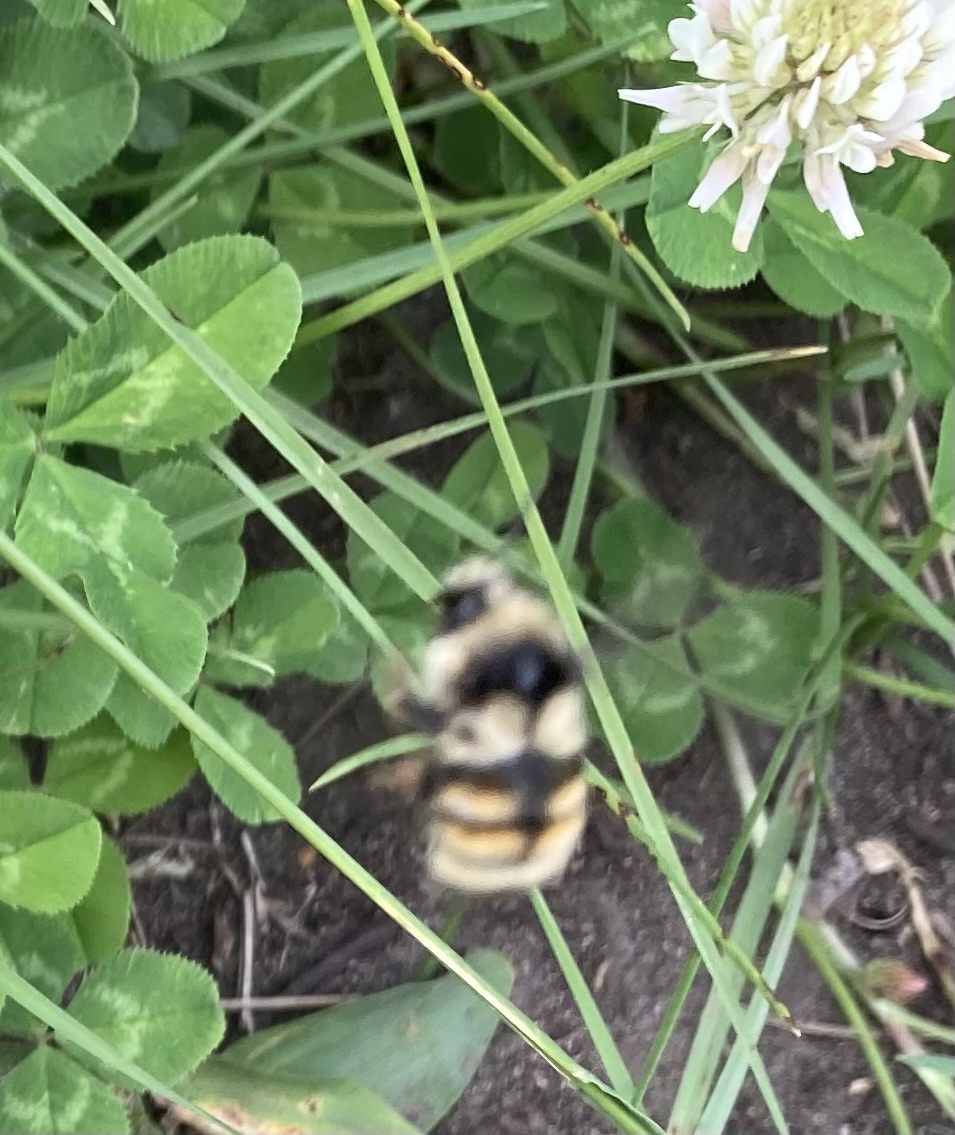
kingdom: Animalia
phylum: Arthropoda
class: Insecta
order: Hymenoptera
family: Apidae
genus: Bombus
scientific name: Bombus vancouverensis
